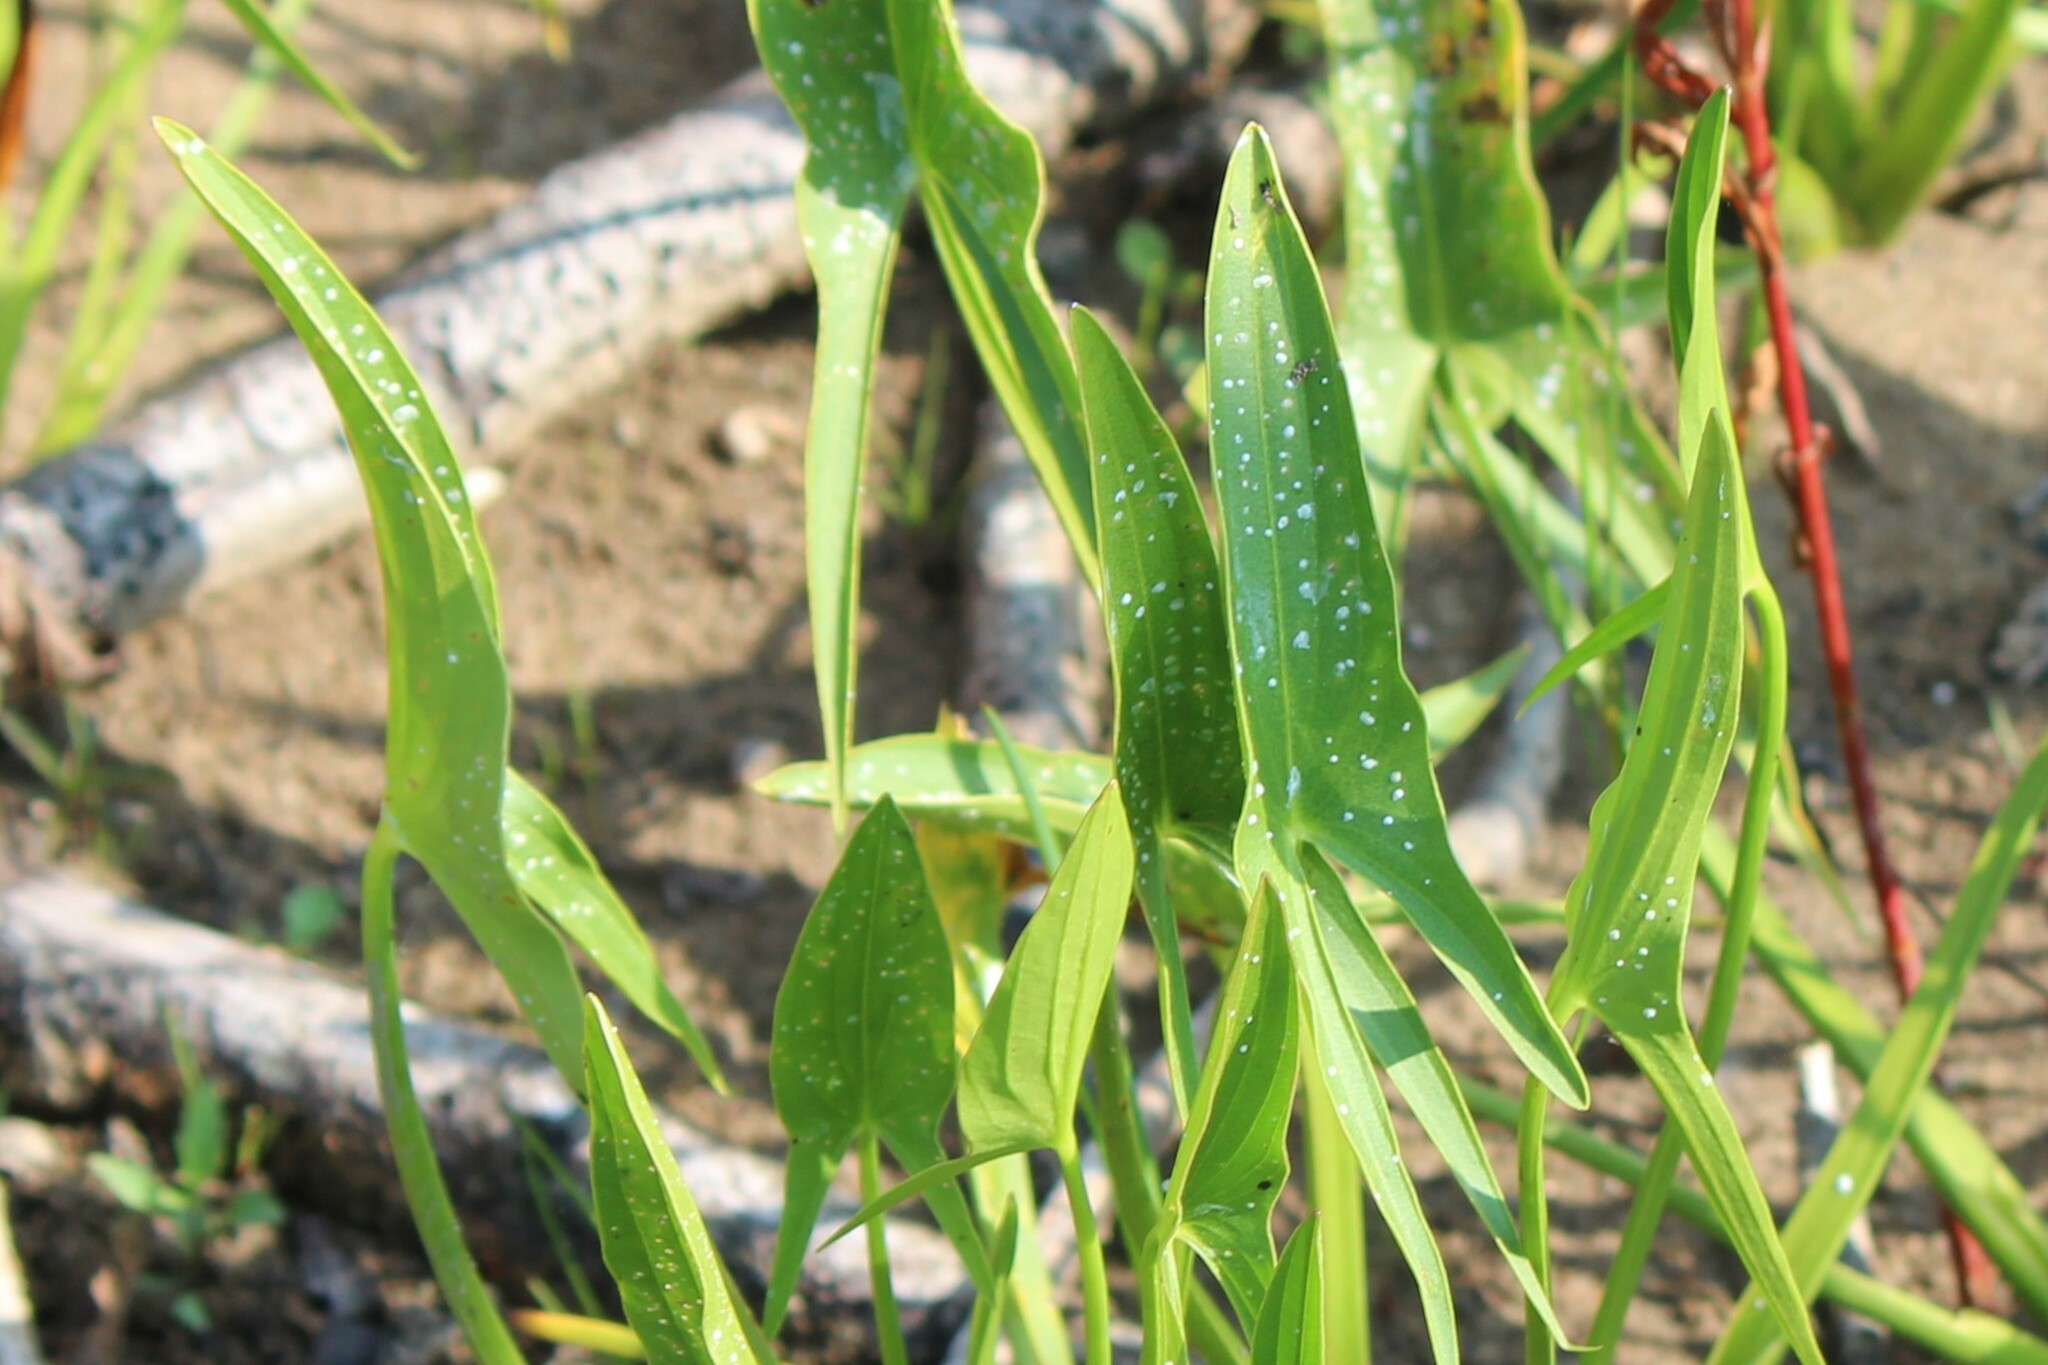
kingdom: Plantae
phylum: Tracheophyta
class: Liliopsida
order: Alismatales
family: Alismataceae
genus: Sagittaria
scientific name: Sagittaria latifolia
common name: Duck-potato
